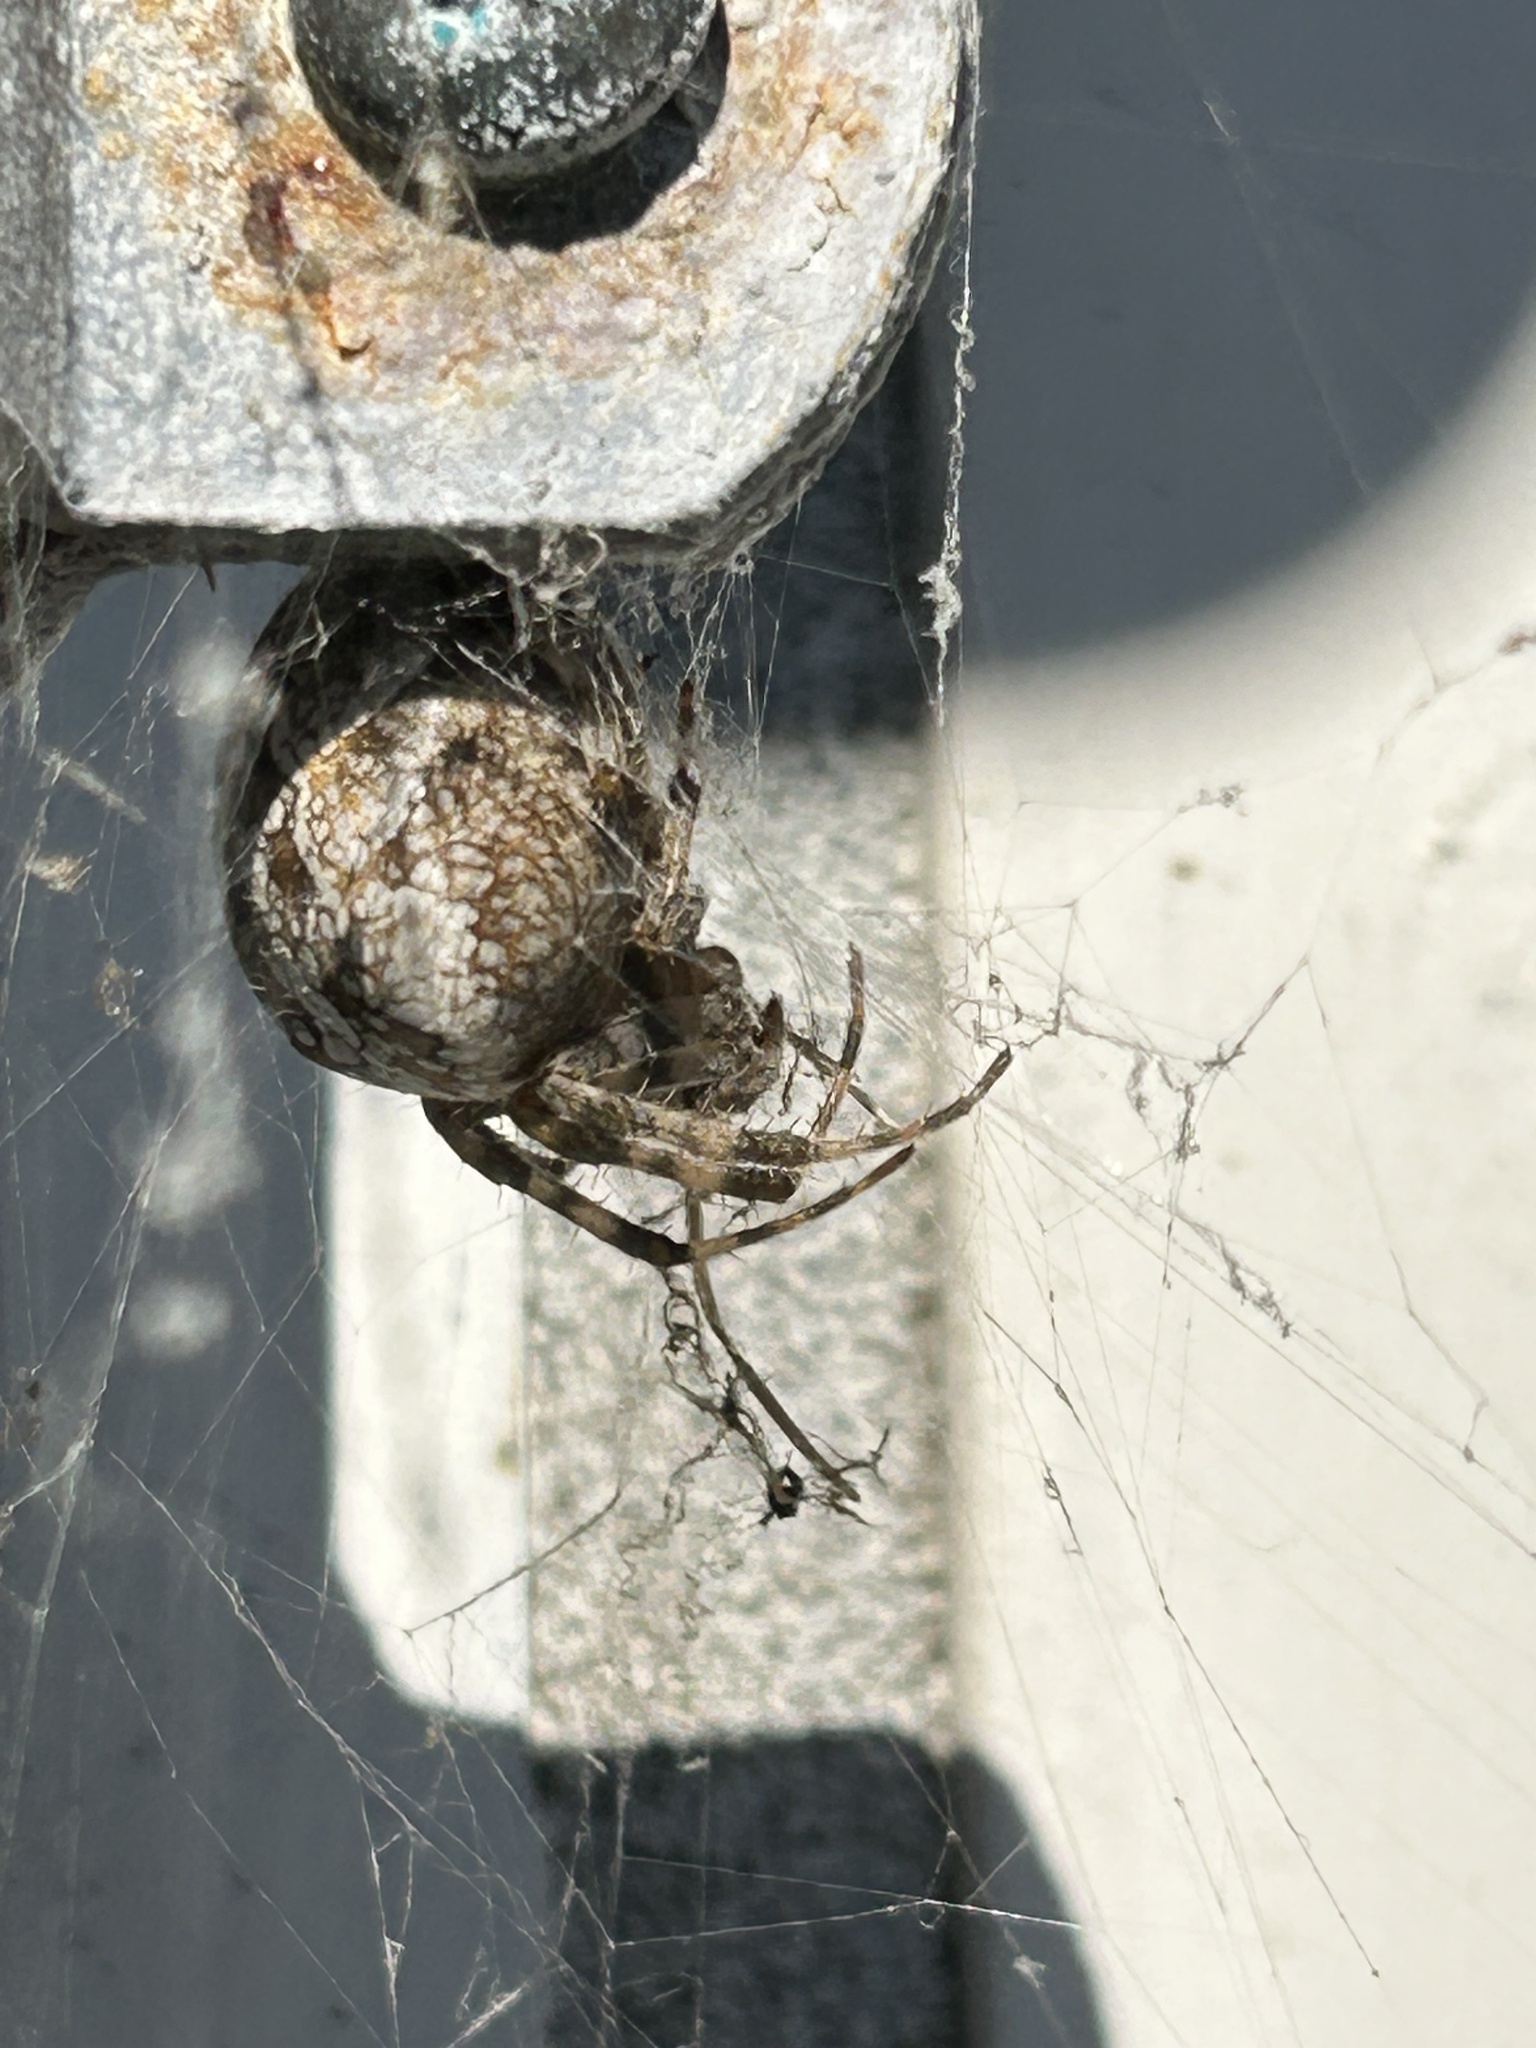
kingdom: Animalia
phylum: Arthropoda
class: Arachnida
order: Araneae
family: Araneidae
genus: Araneus
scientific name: Araneus diadematus
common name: Cross orbweaver
